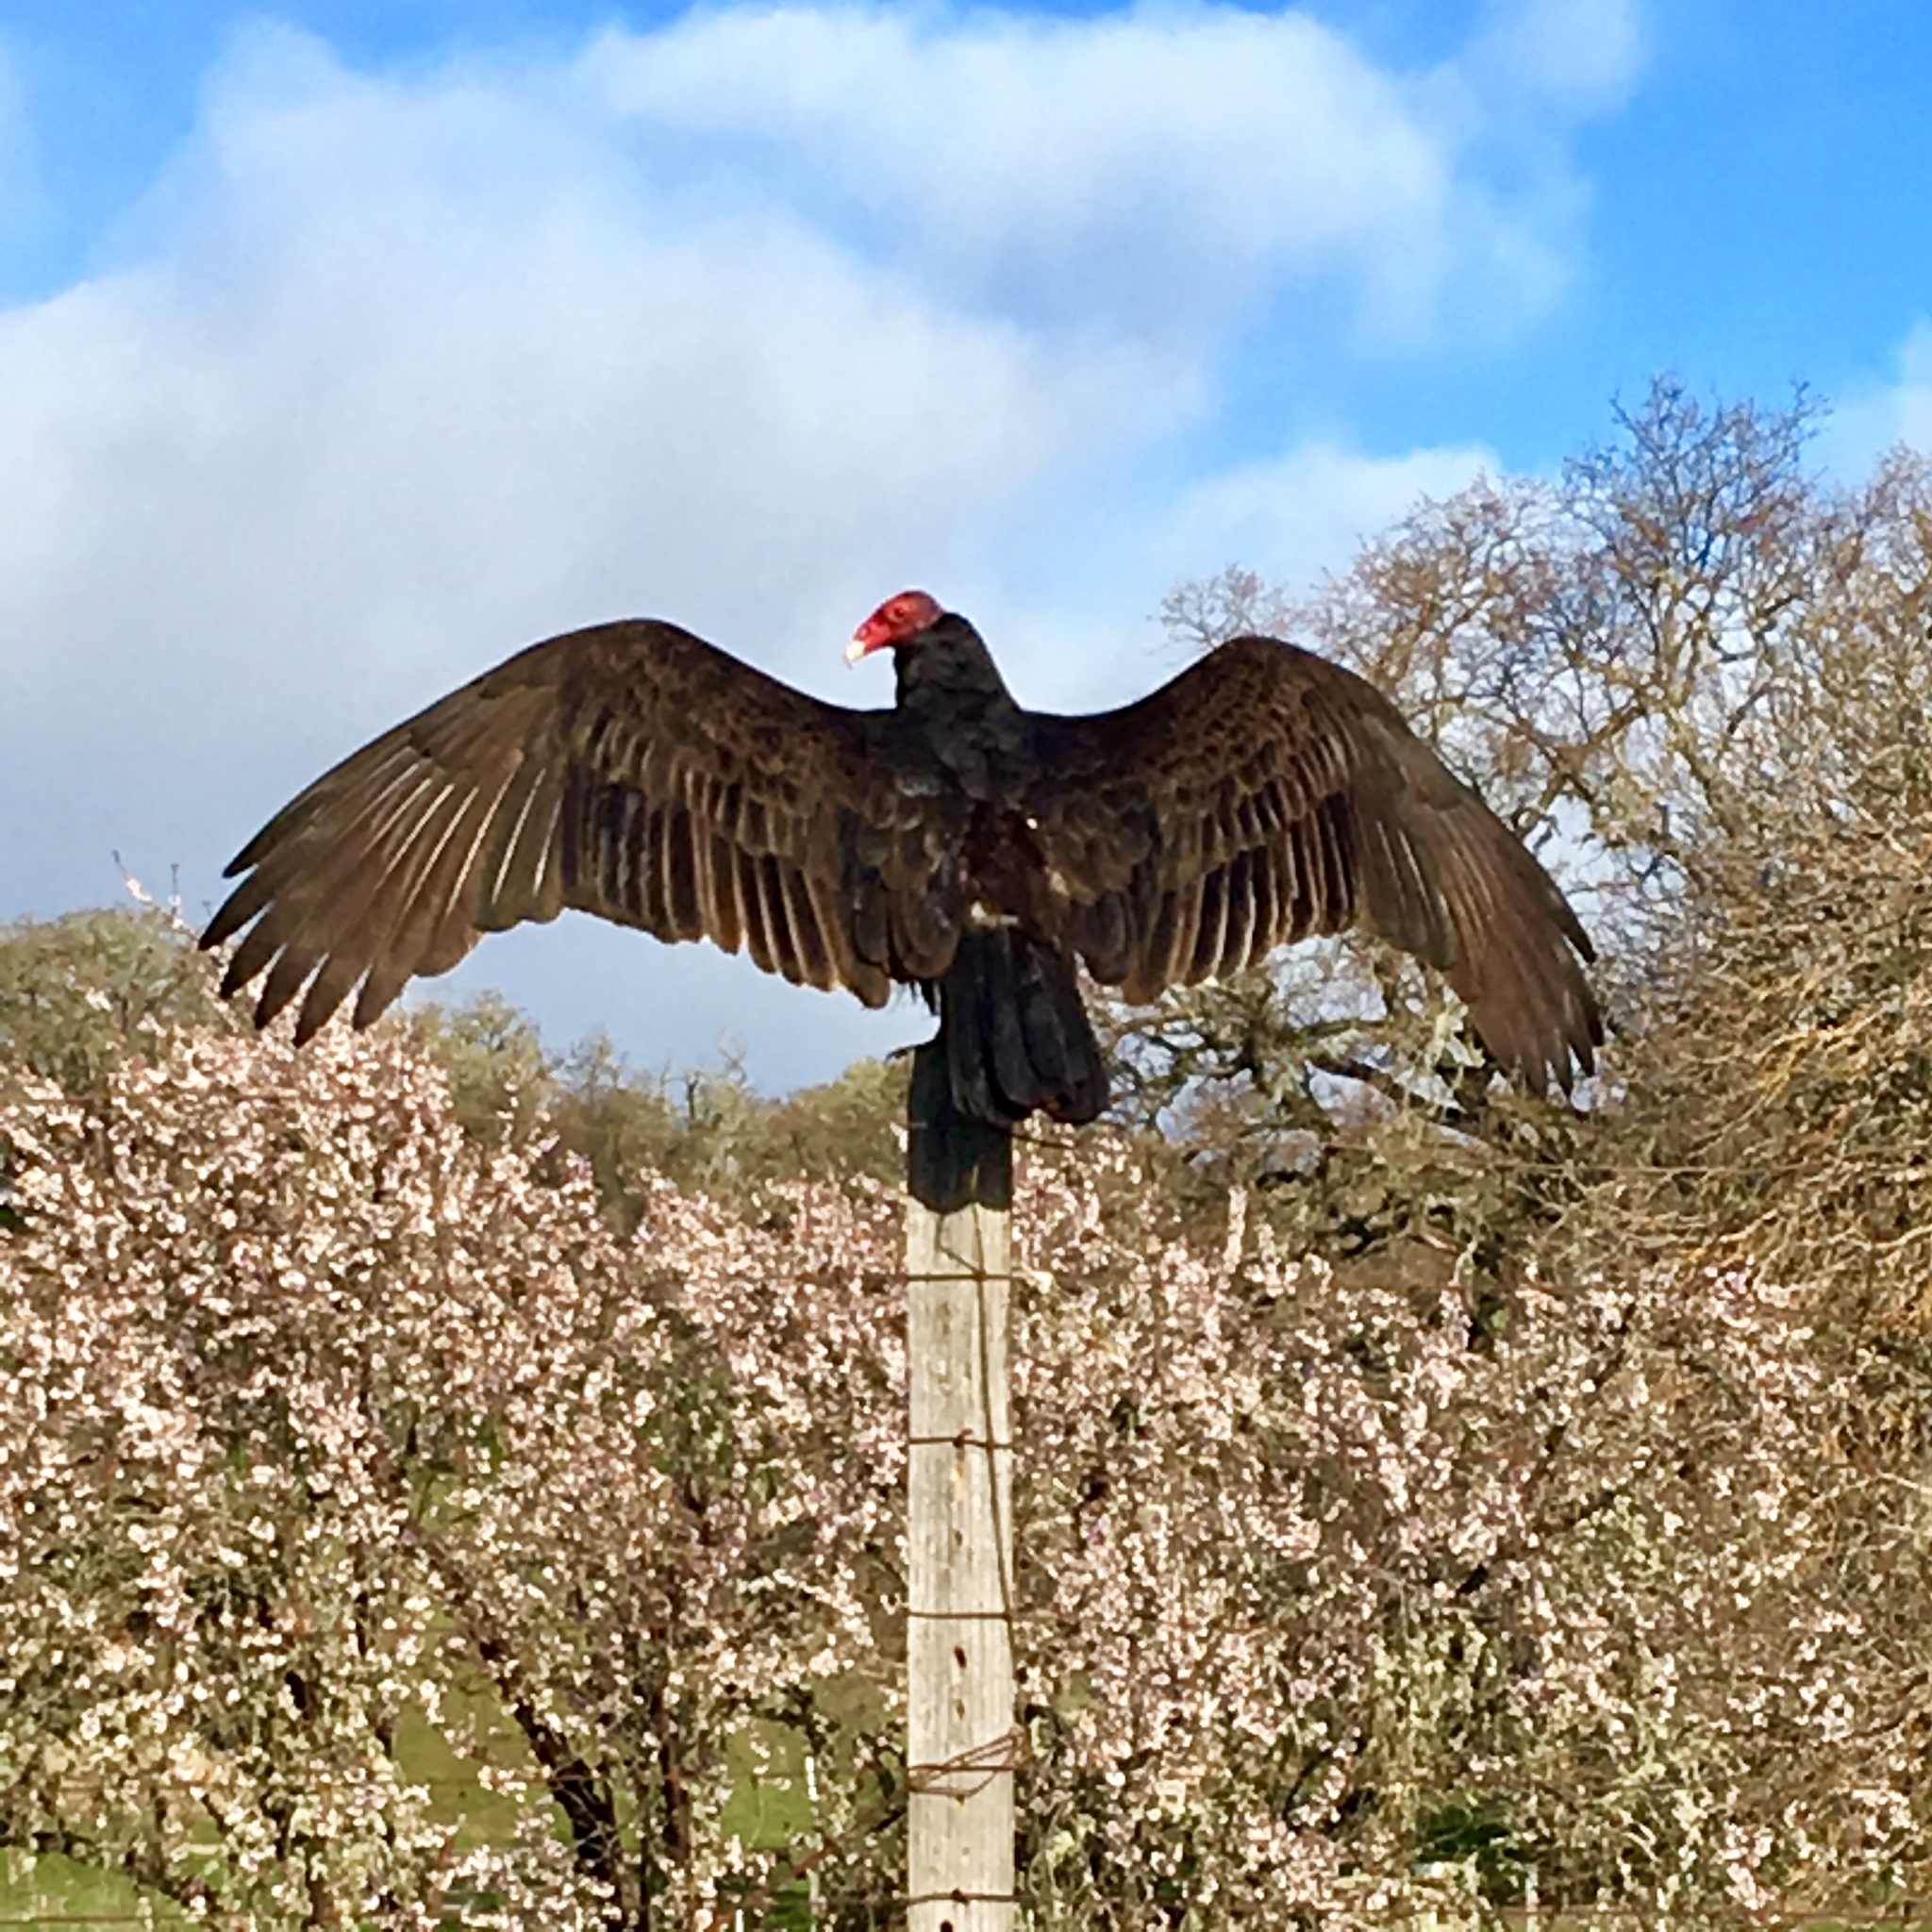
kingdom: Animalia
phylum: Chordata
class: Aves
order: Accipitriformes
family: Cathartidae
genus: Cathartes
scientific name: Cathartes aura
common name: Turkey vulture
